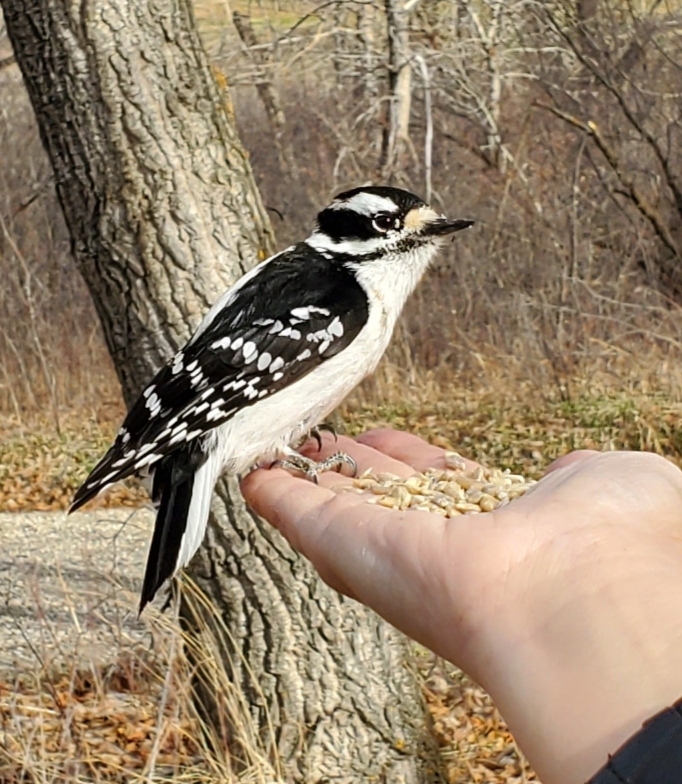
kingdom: Animalia
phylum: Chordata
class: Aves
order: Piciformes
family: Picidae
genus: Dryobates
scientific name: Dryobates pubescens
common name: Downy woodpecker
